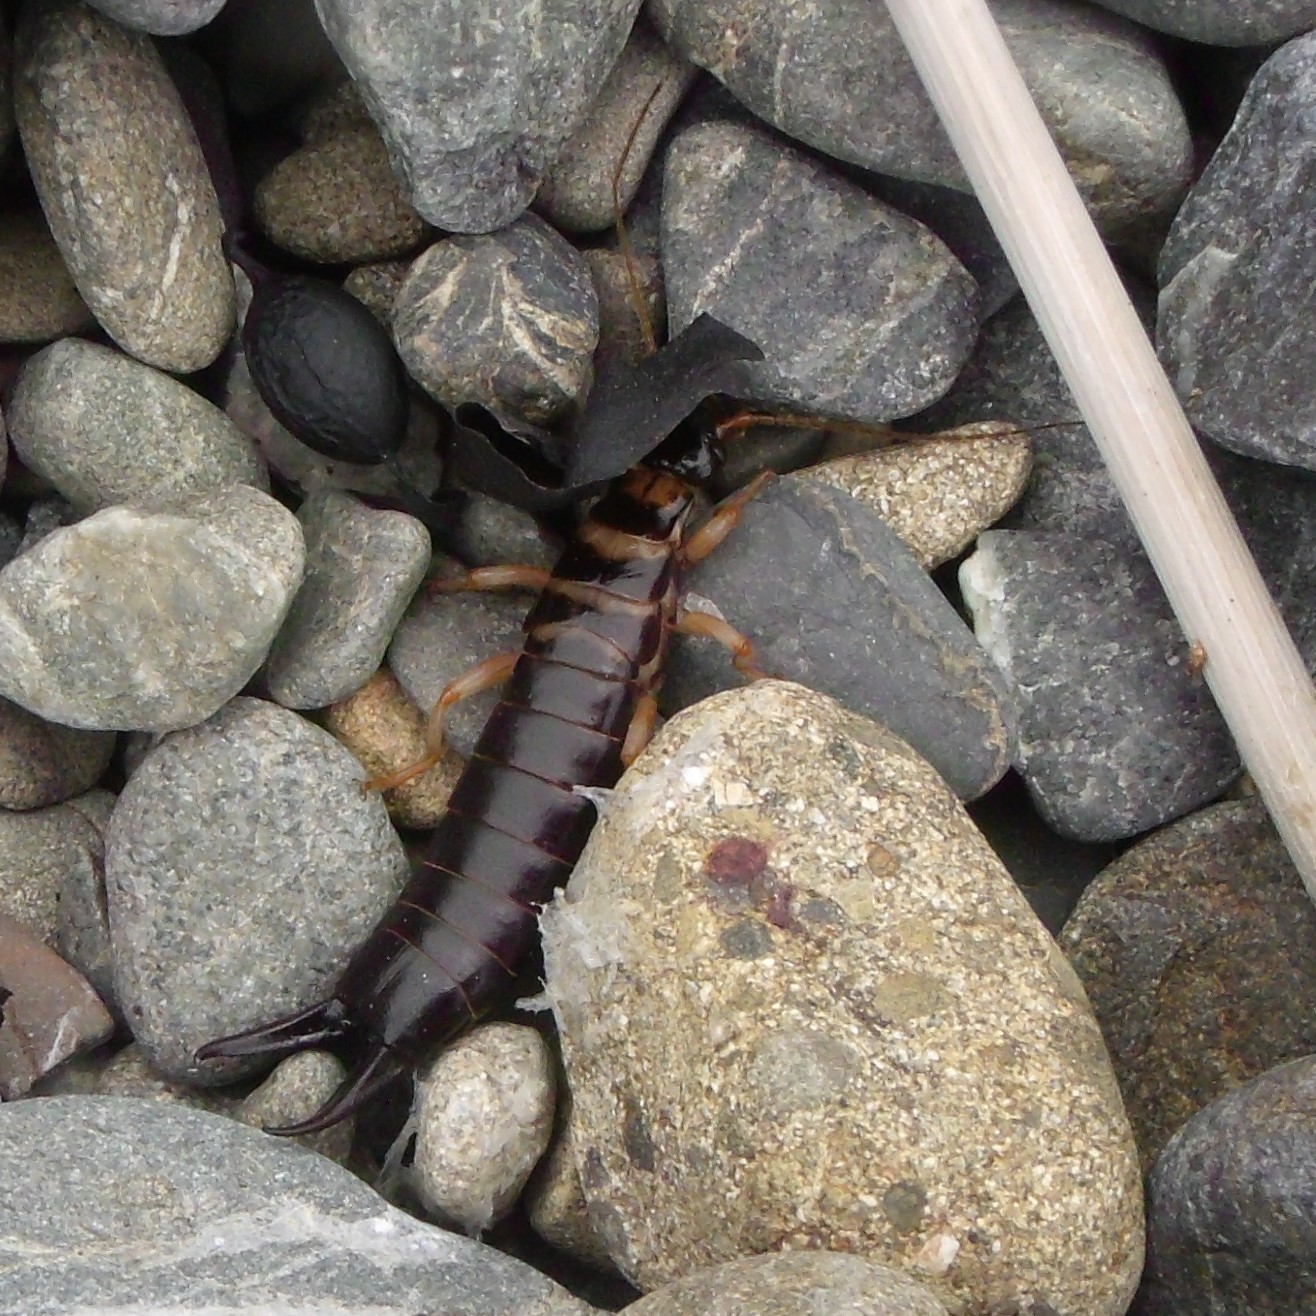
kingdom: Animalia
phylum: Arthropoda
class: Insecta
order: Dermaptera
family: Anisolabididae
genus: Anisolabis
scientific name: Anisolabis littorea
